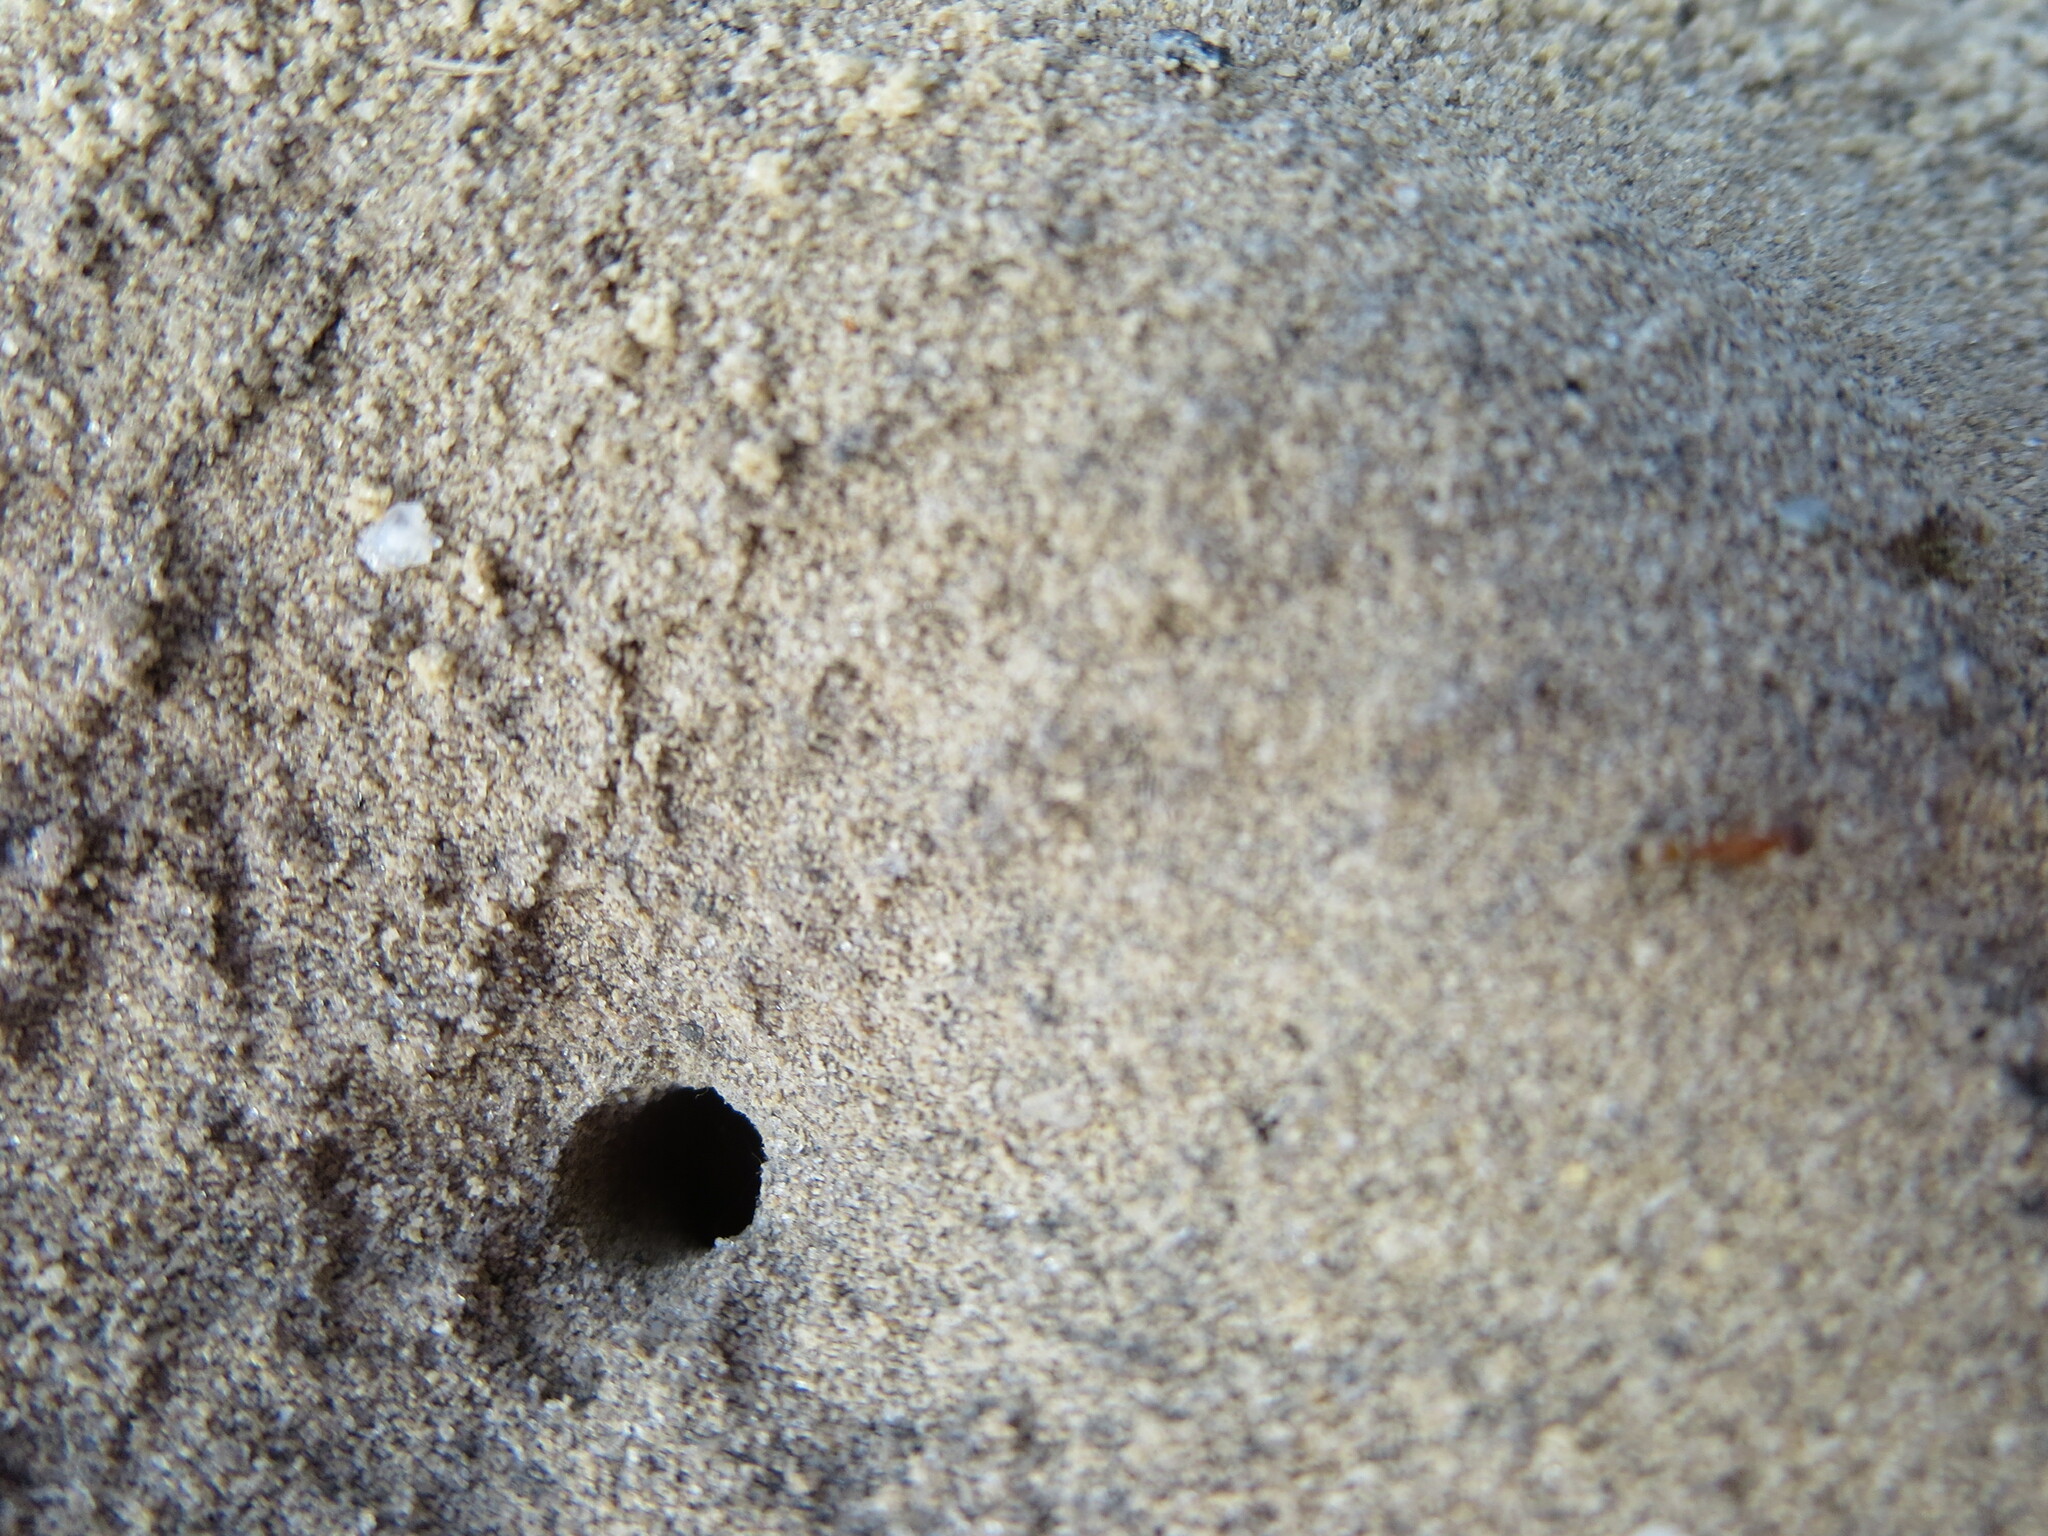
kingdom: Animalia
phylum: Arthropoda
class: Insecta
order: Hymenoptera
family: Formicidae
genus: Dorymyrmex
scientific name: Dorymyrmex bureni
